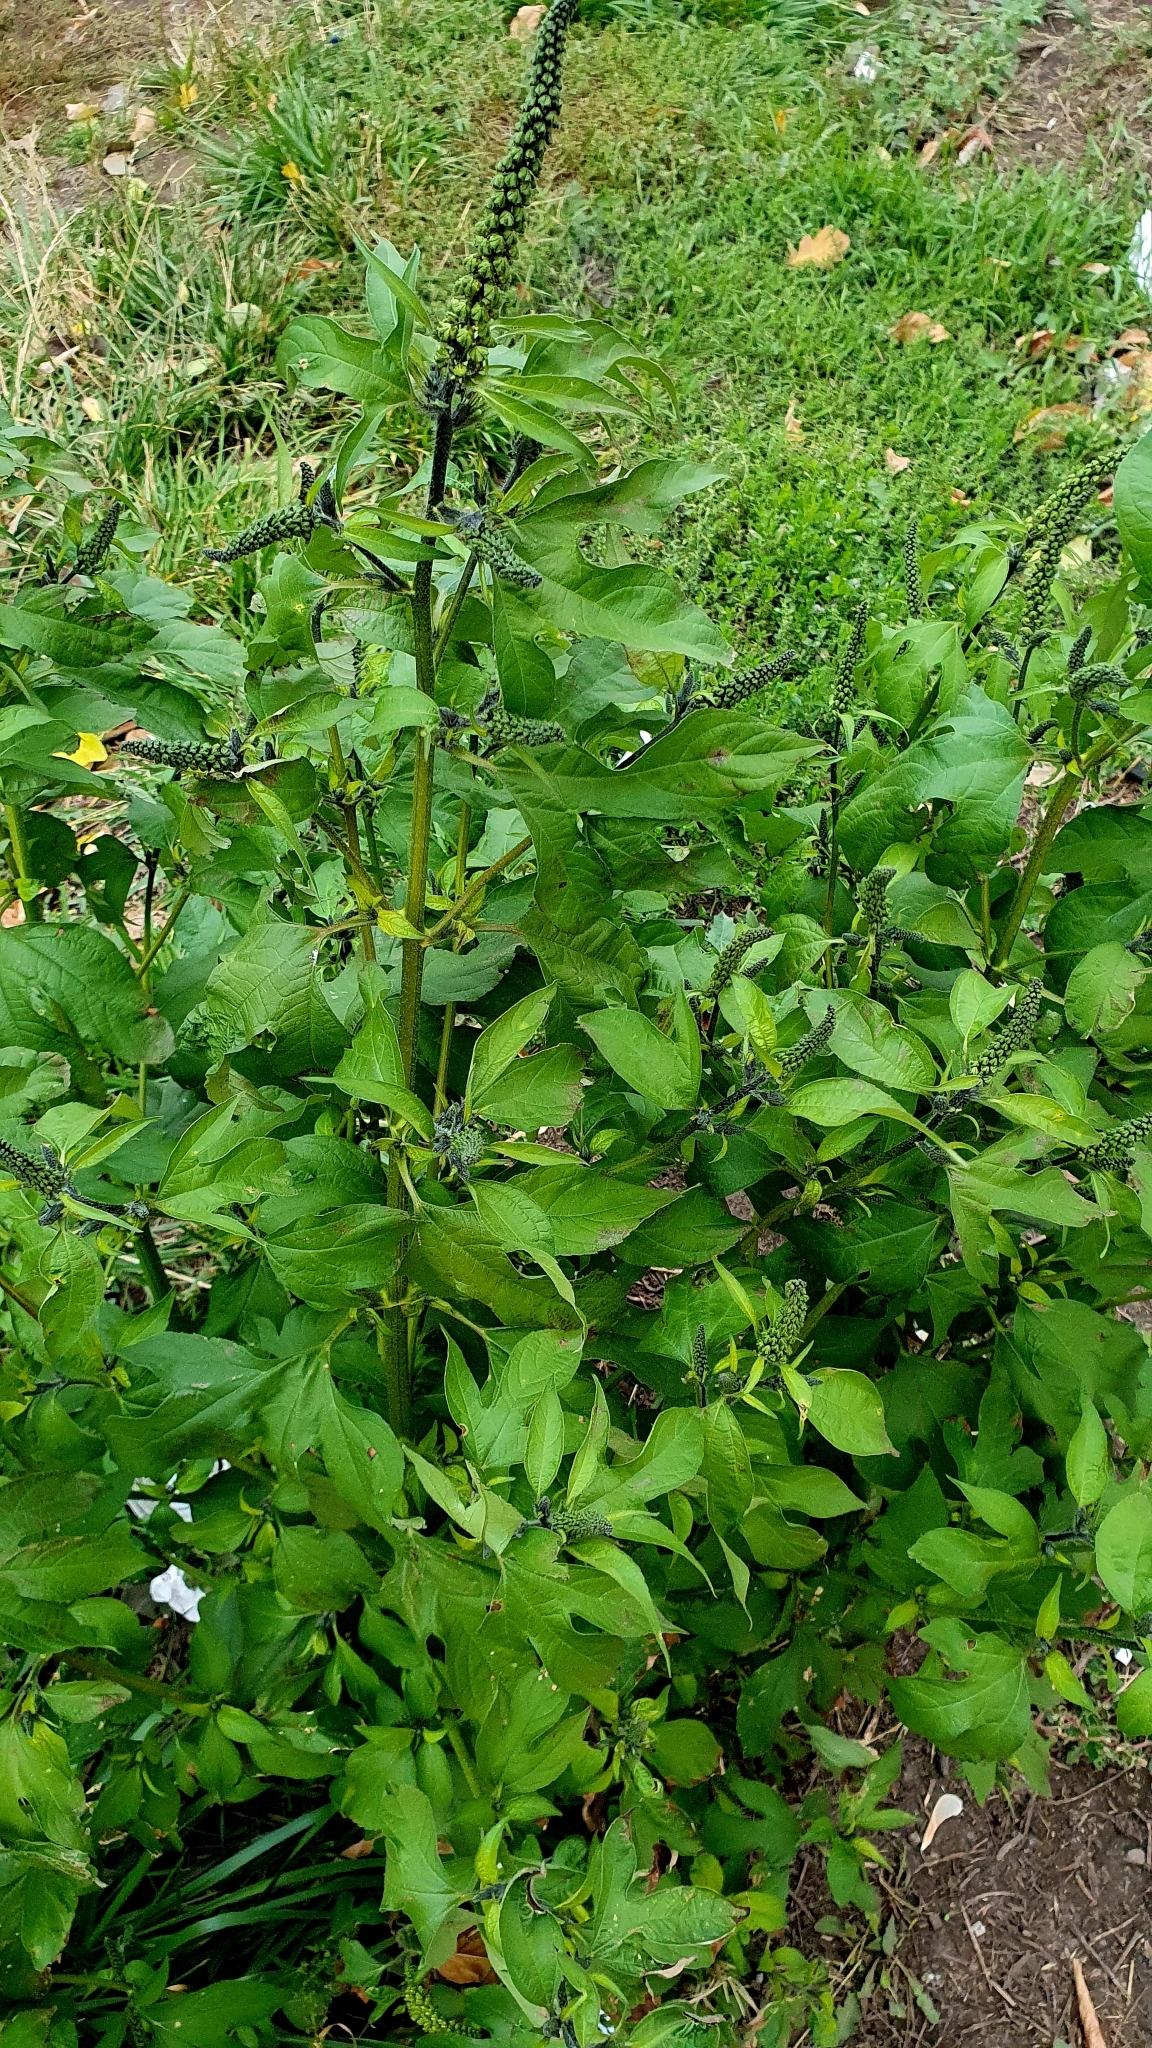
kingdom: Plantae
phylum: Tracheophyta
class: Magnoliopsida
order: Asterales
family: Asteraceae
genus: Ambrosia
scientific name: Ambrosia trifida
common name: Giant ragweed
